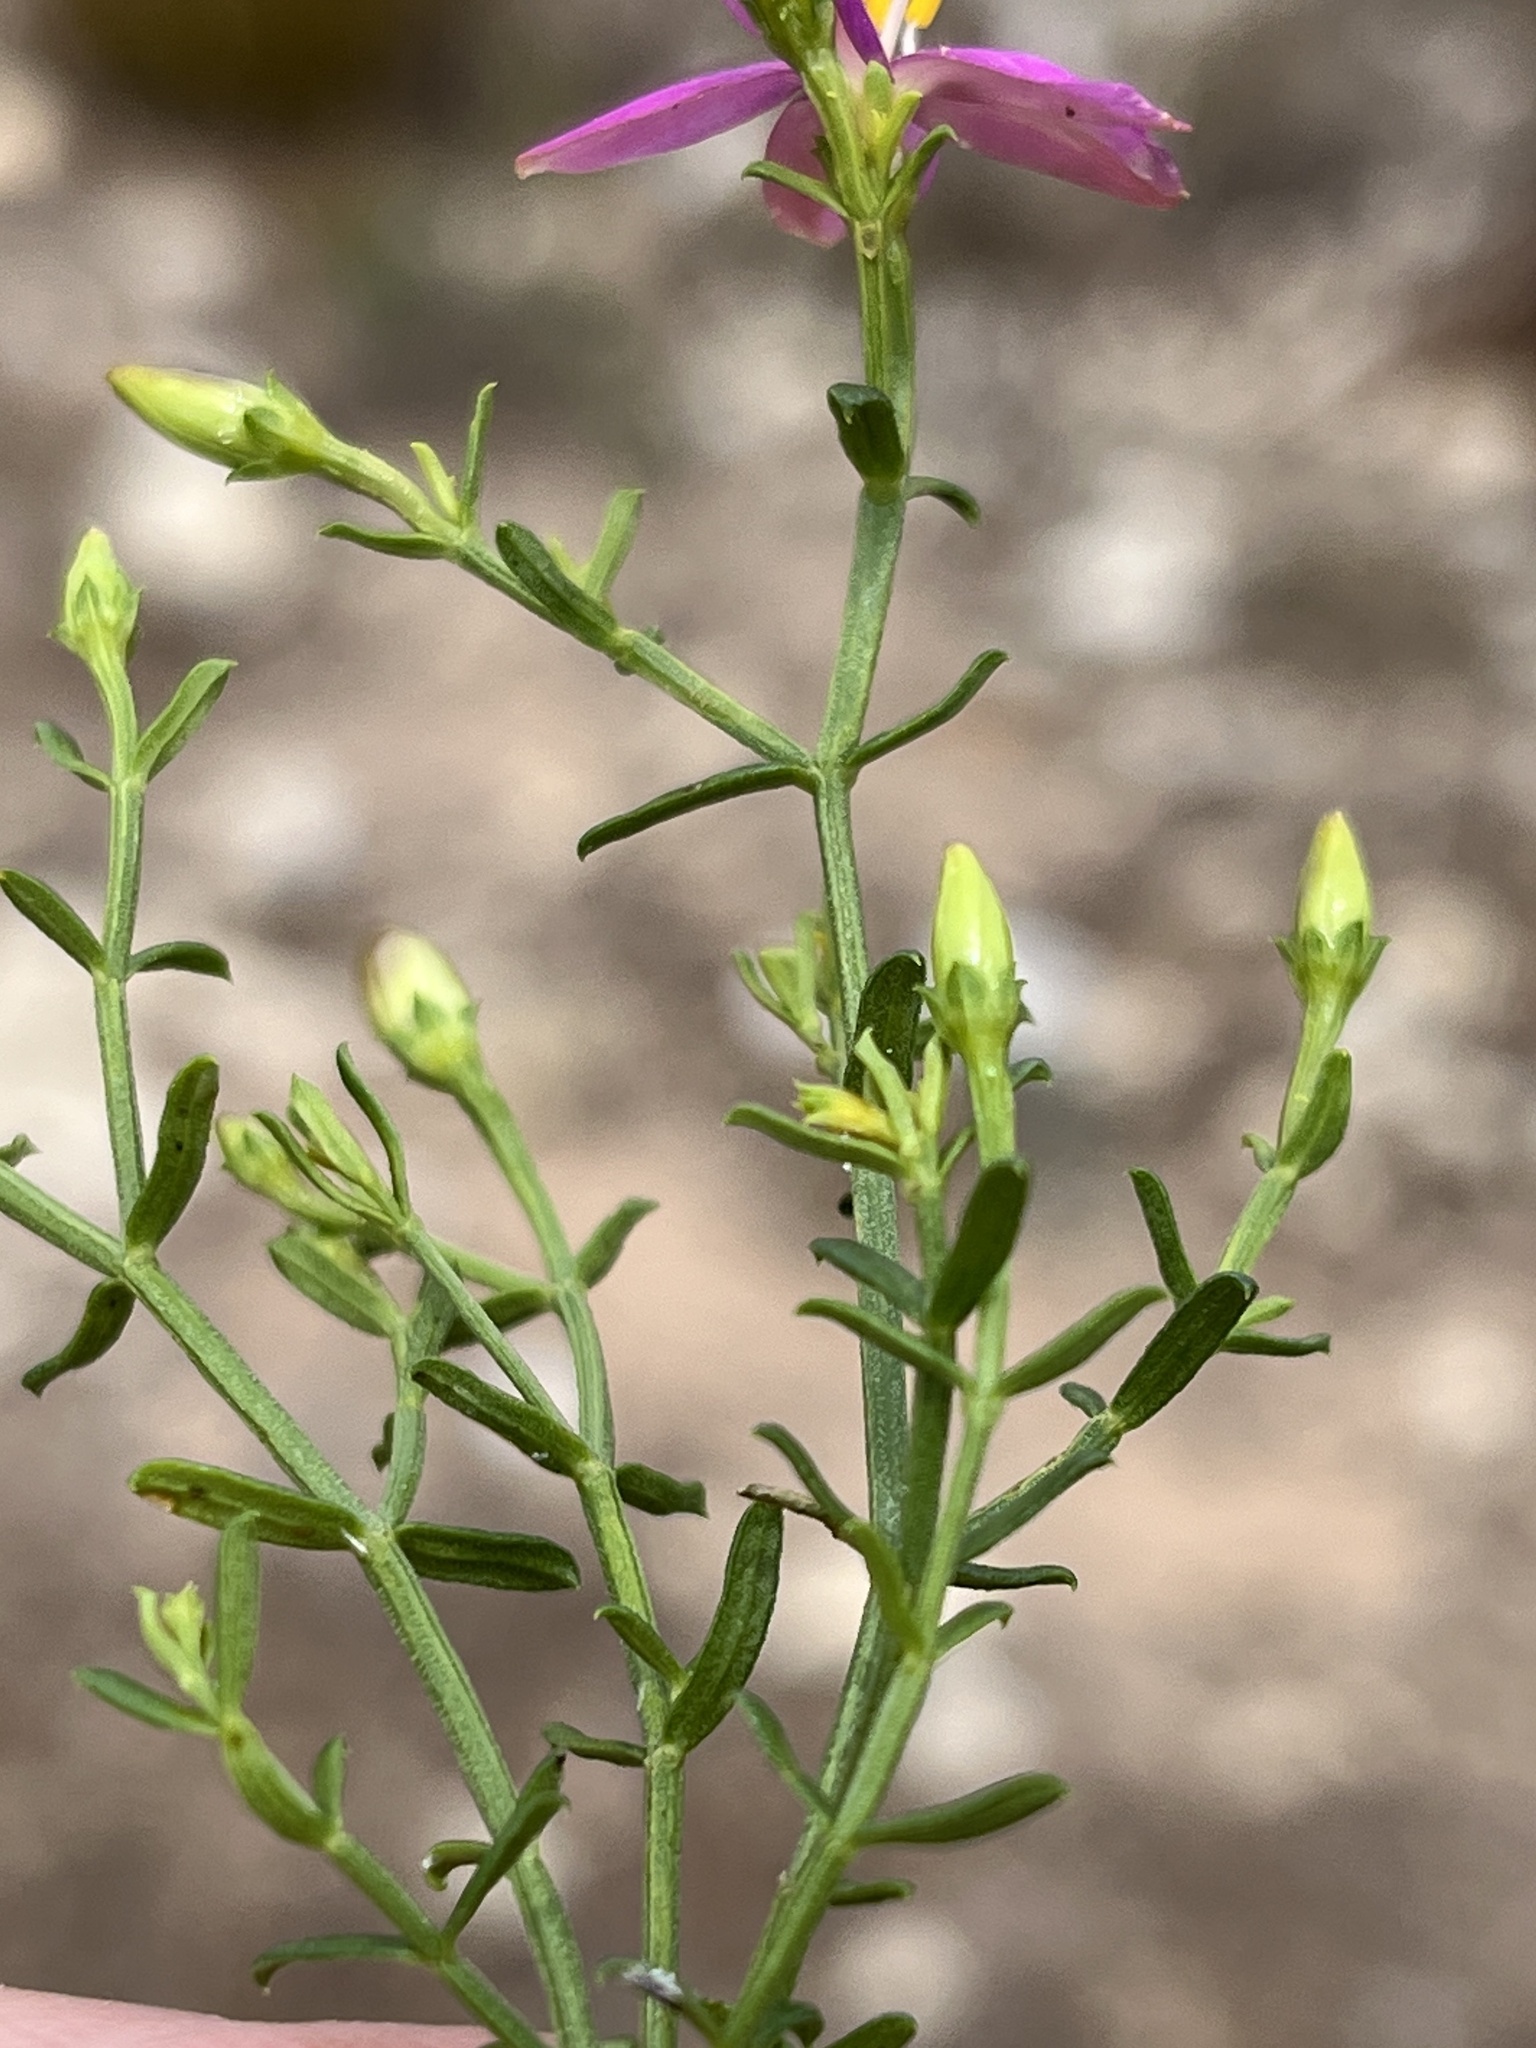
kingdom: Plantae
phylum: Tracheophyta
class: Magnoliopsida
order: Gentianales
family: Gentianaceae
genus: Chironia
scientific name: Chironia tetragona
